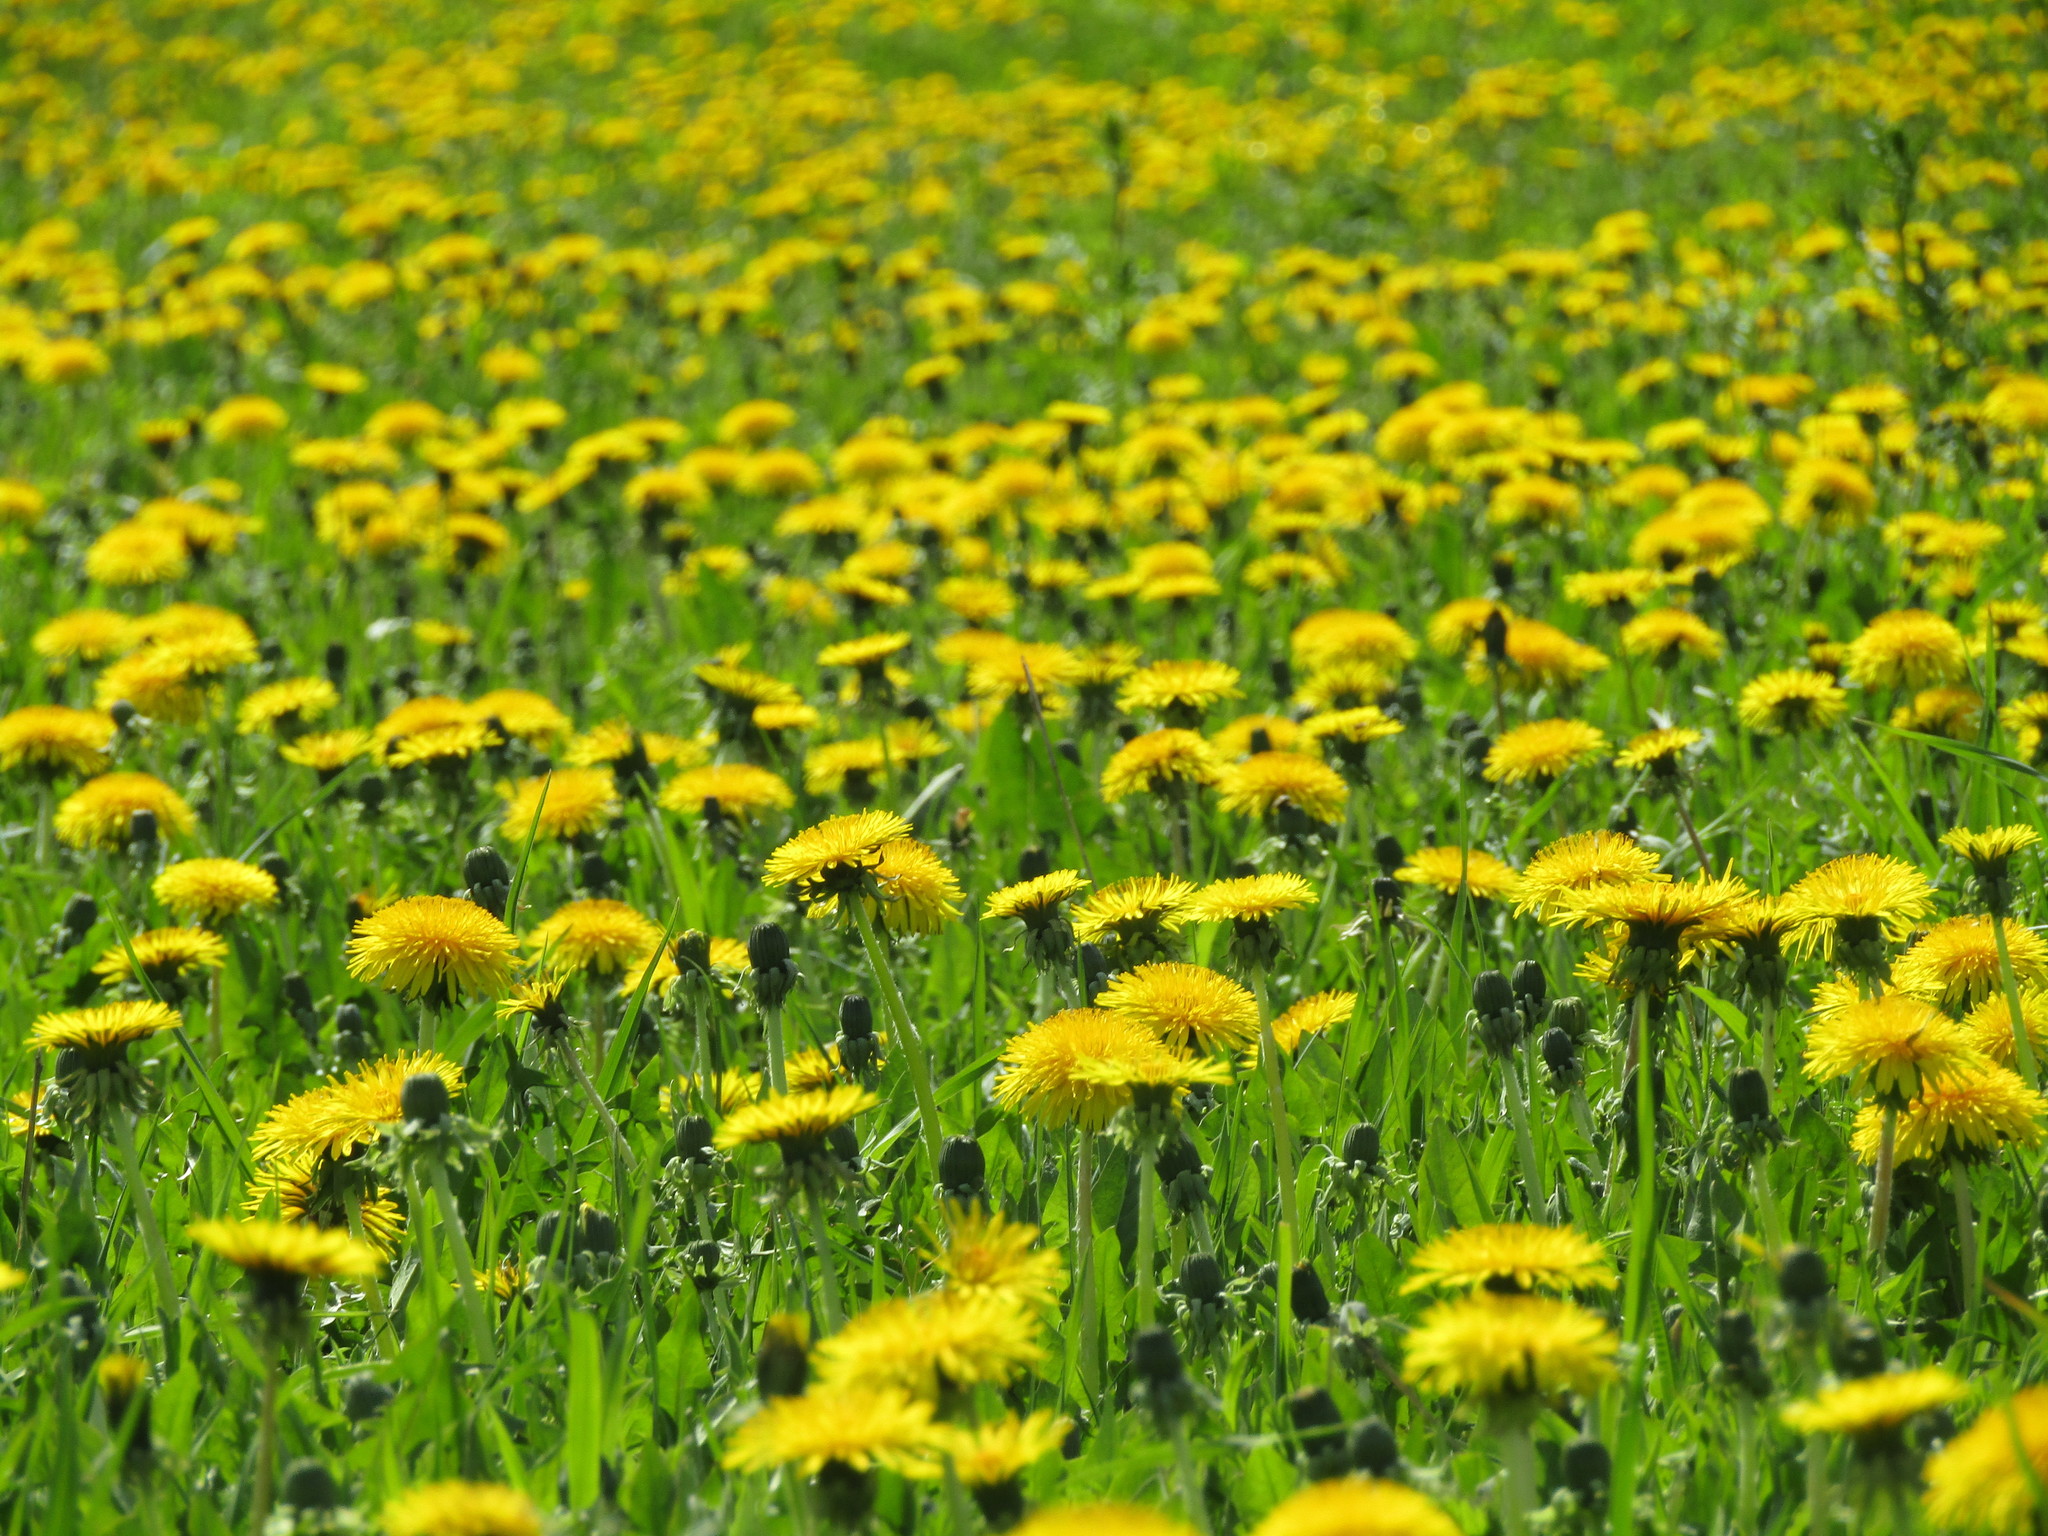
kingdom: Plantae
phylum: Tracheophyta
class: Magnoliopsida
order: Asterales
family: Asteraceae
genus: Taraxacum
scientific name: Taraxacum officinale
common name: Common dandelion
